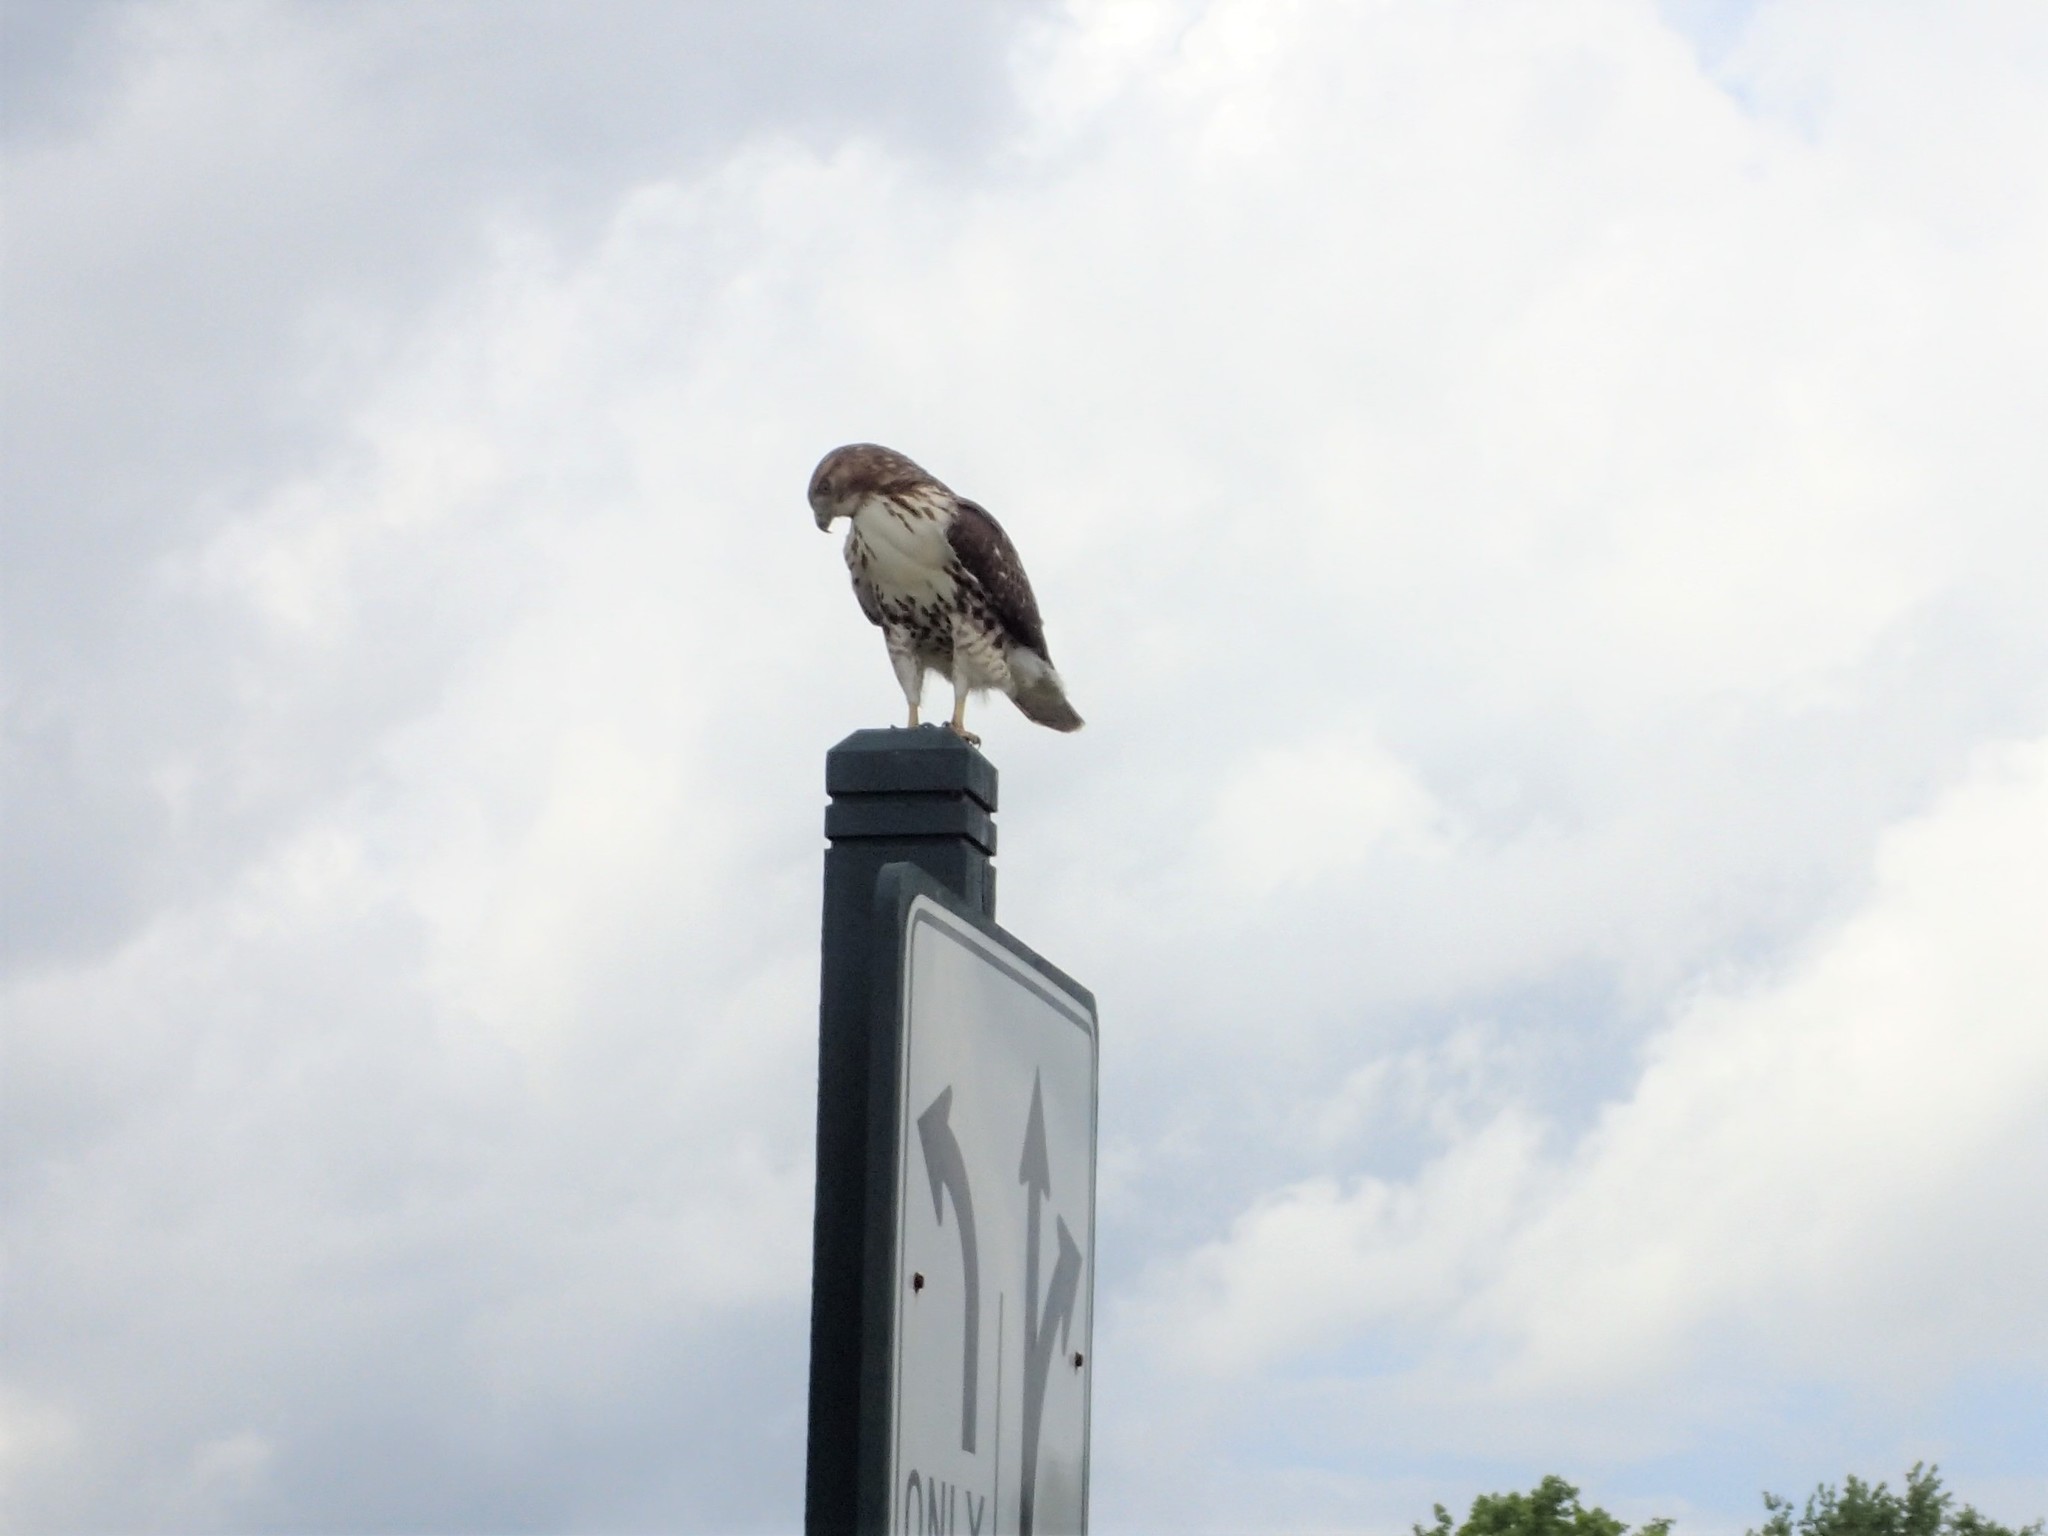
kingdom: Animalia
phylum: Chordata
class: Aves
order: Accipitriformes
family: Accipitridae
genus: Buteo
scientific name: Buteo jamaicensis
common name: Red-tailed hawk
